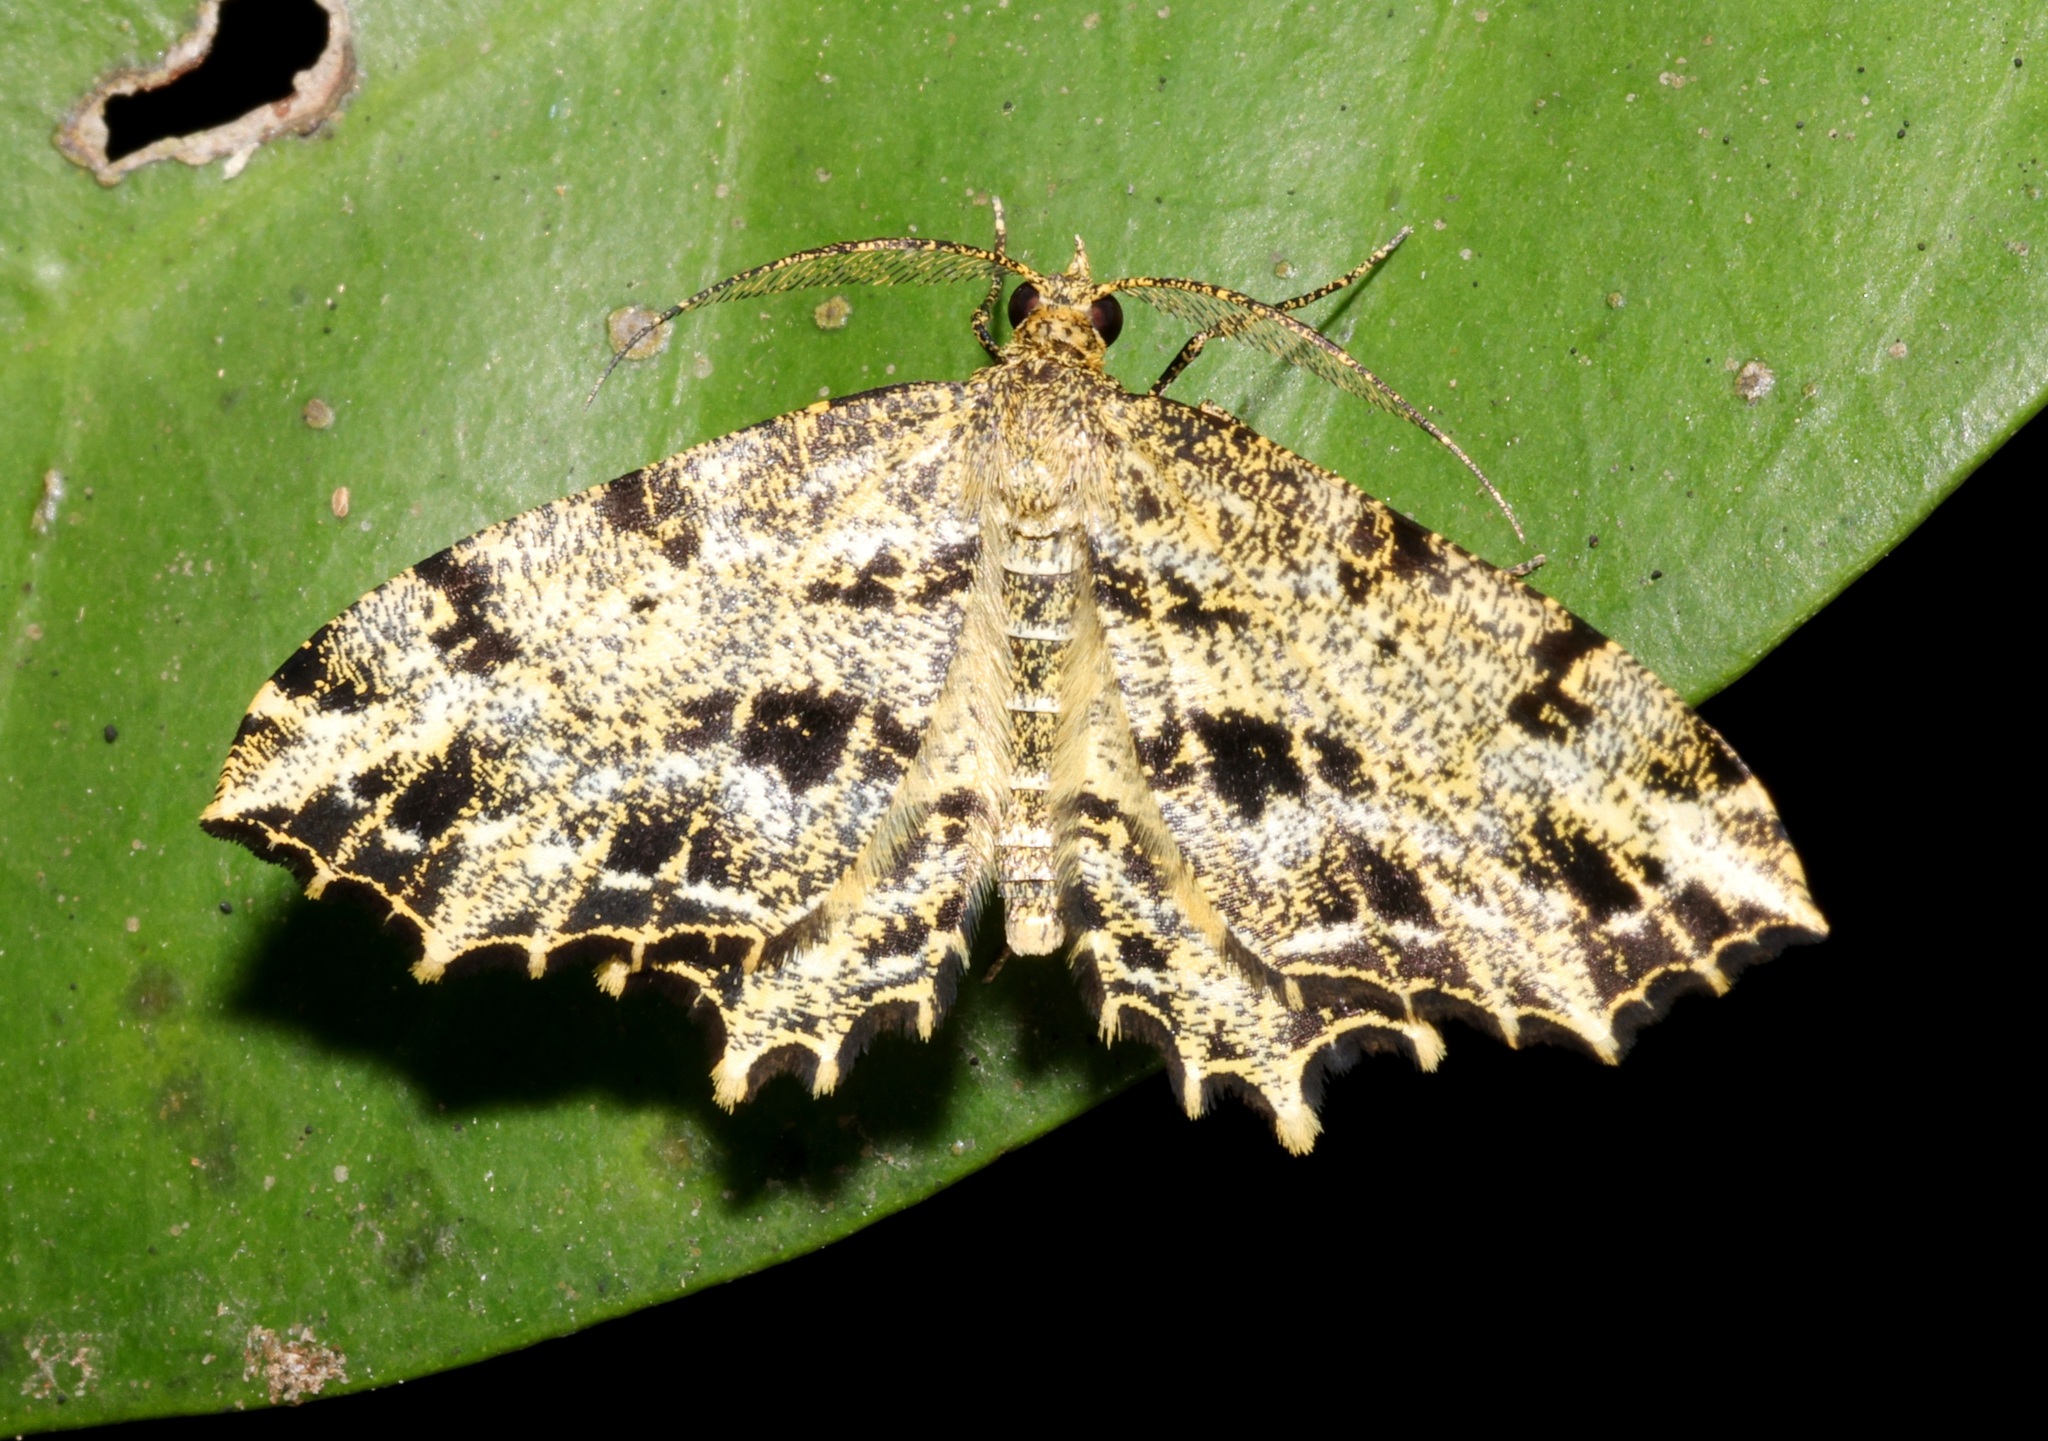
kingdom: Animalia
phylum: Arthropoda
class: Insecta
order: Lepidoptera
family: Geometridae
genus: Carige
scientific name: Carige lunulineata
